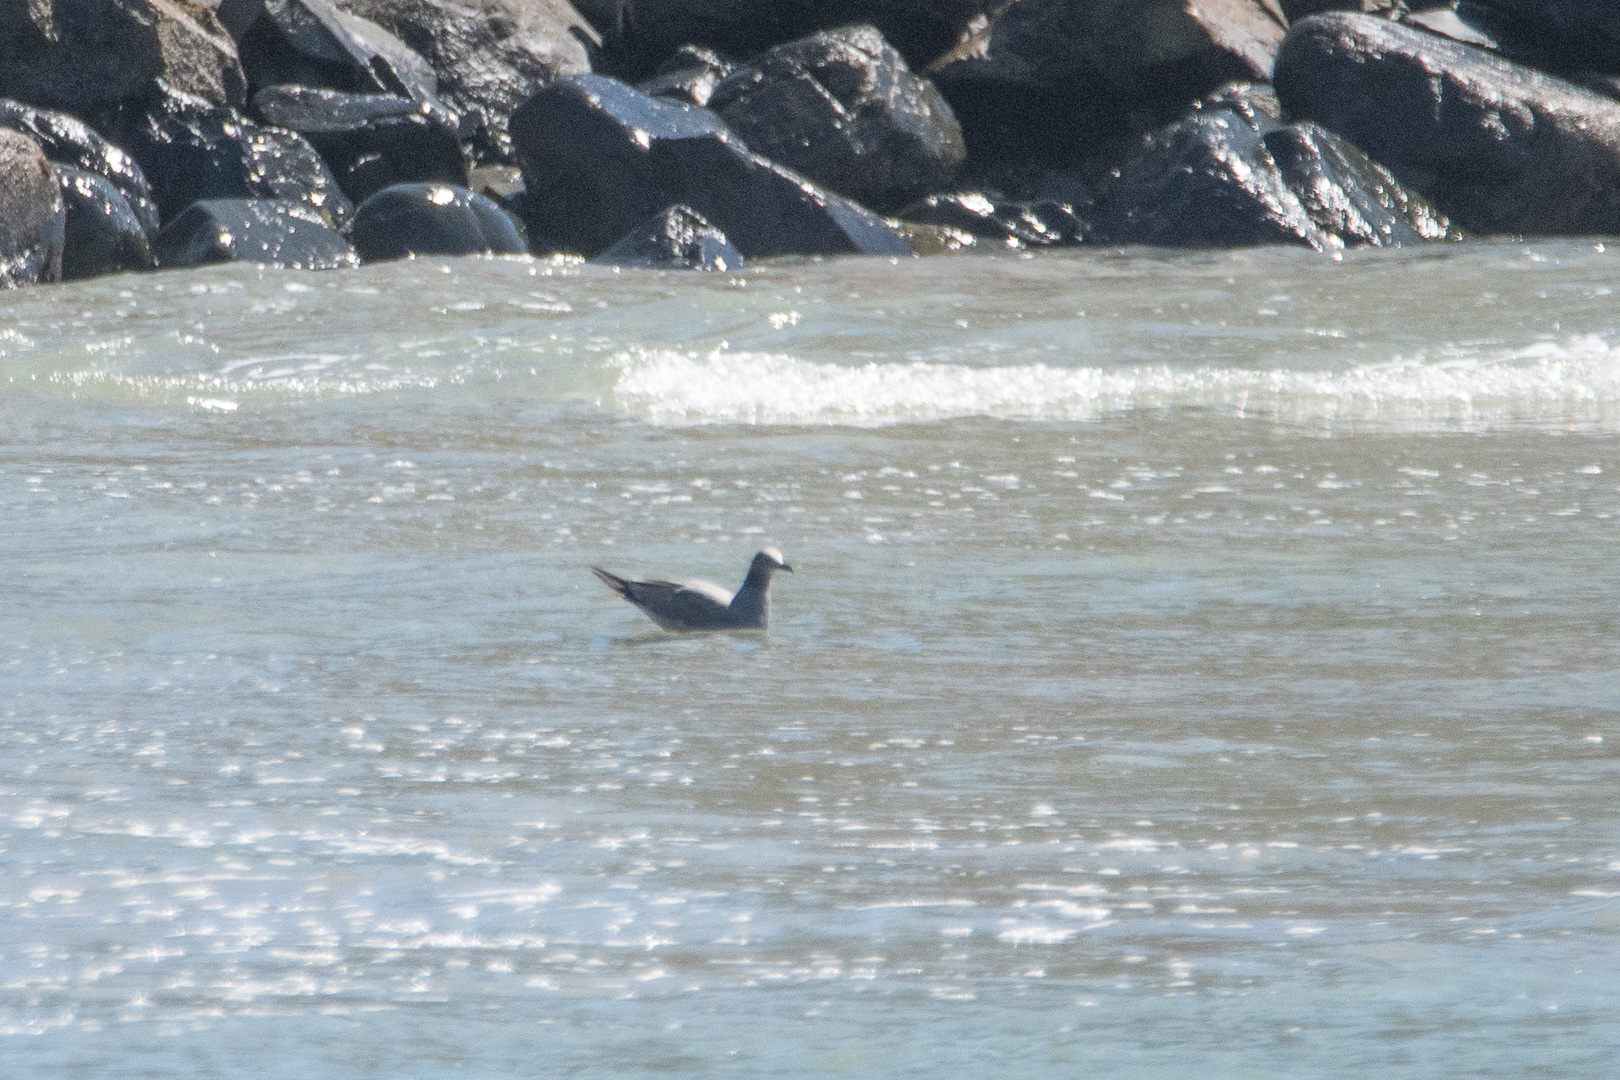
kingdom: Animalia
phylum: Chordata
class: Aves
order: Charadriiformes
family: Laridae
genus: Leucophaeus
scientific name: Leucophaeus modestus
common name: Gray gull
